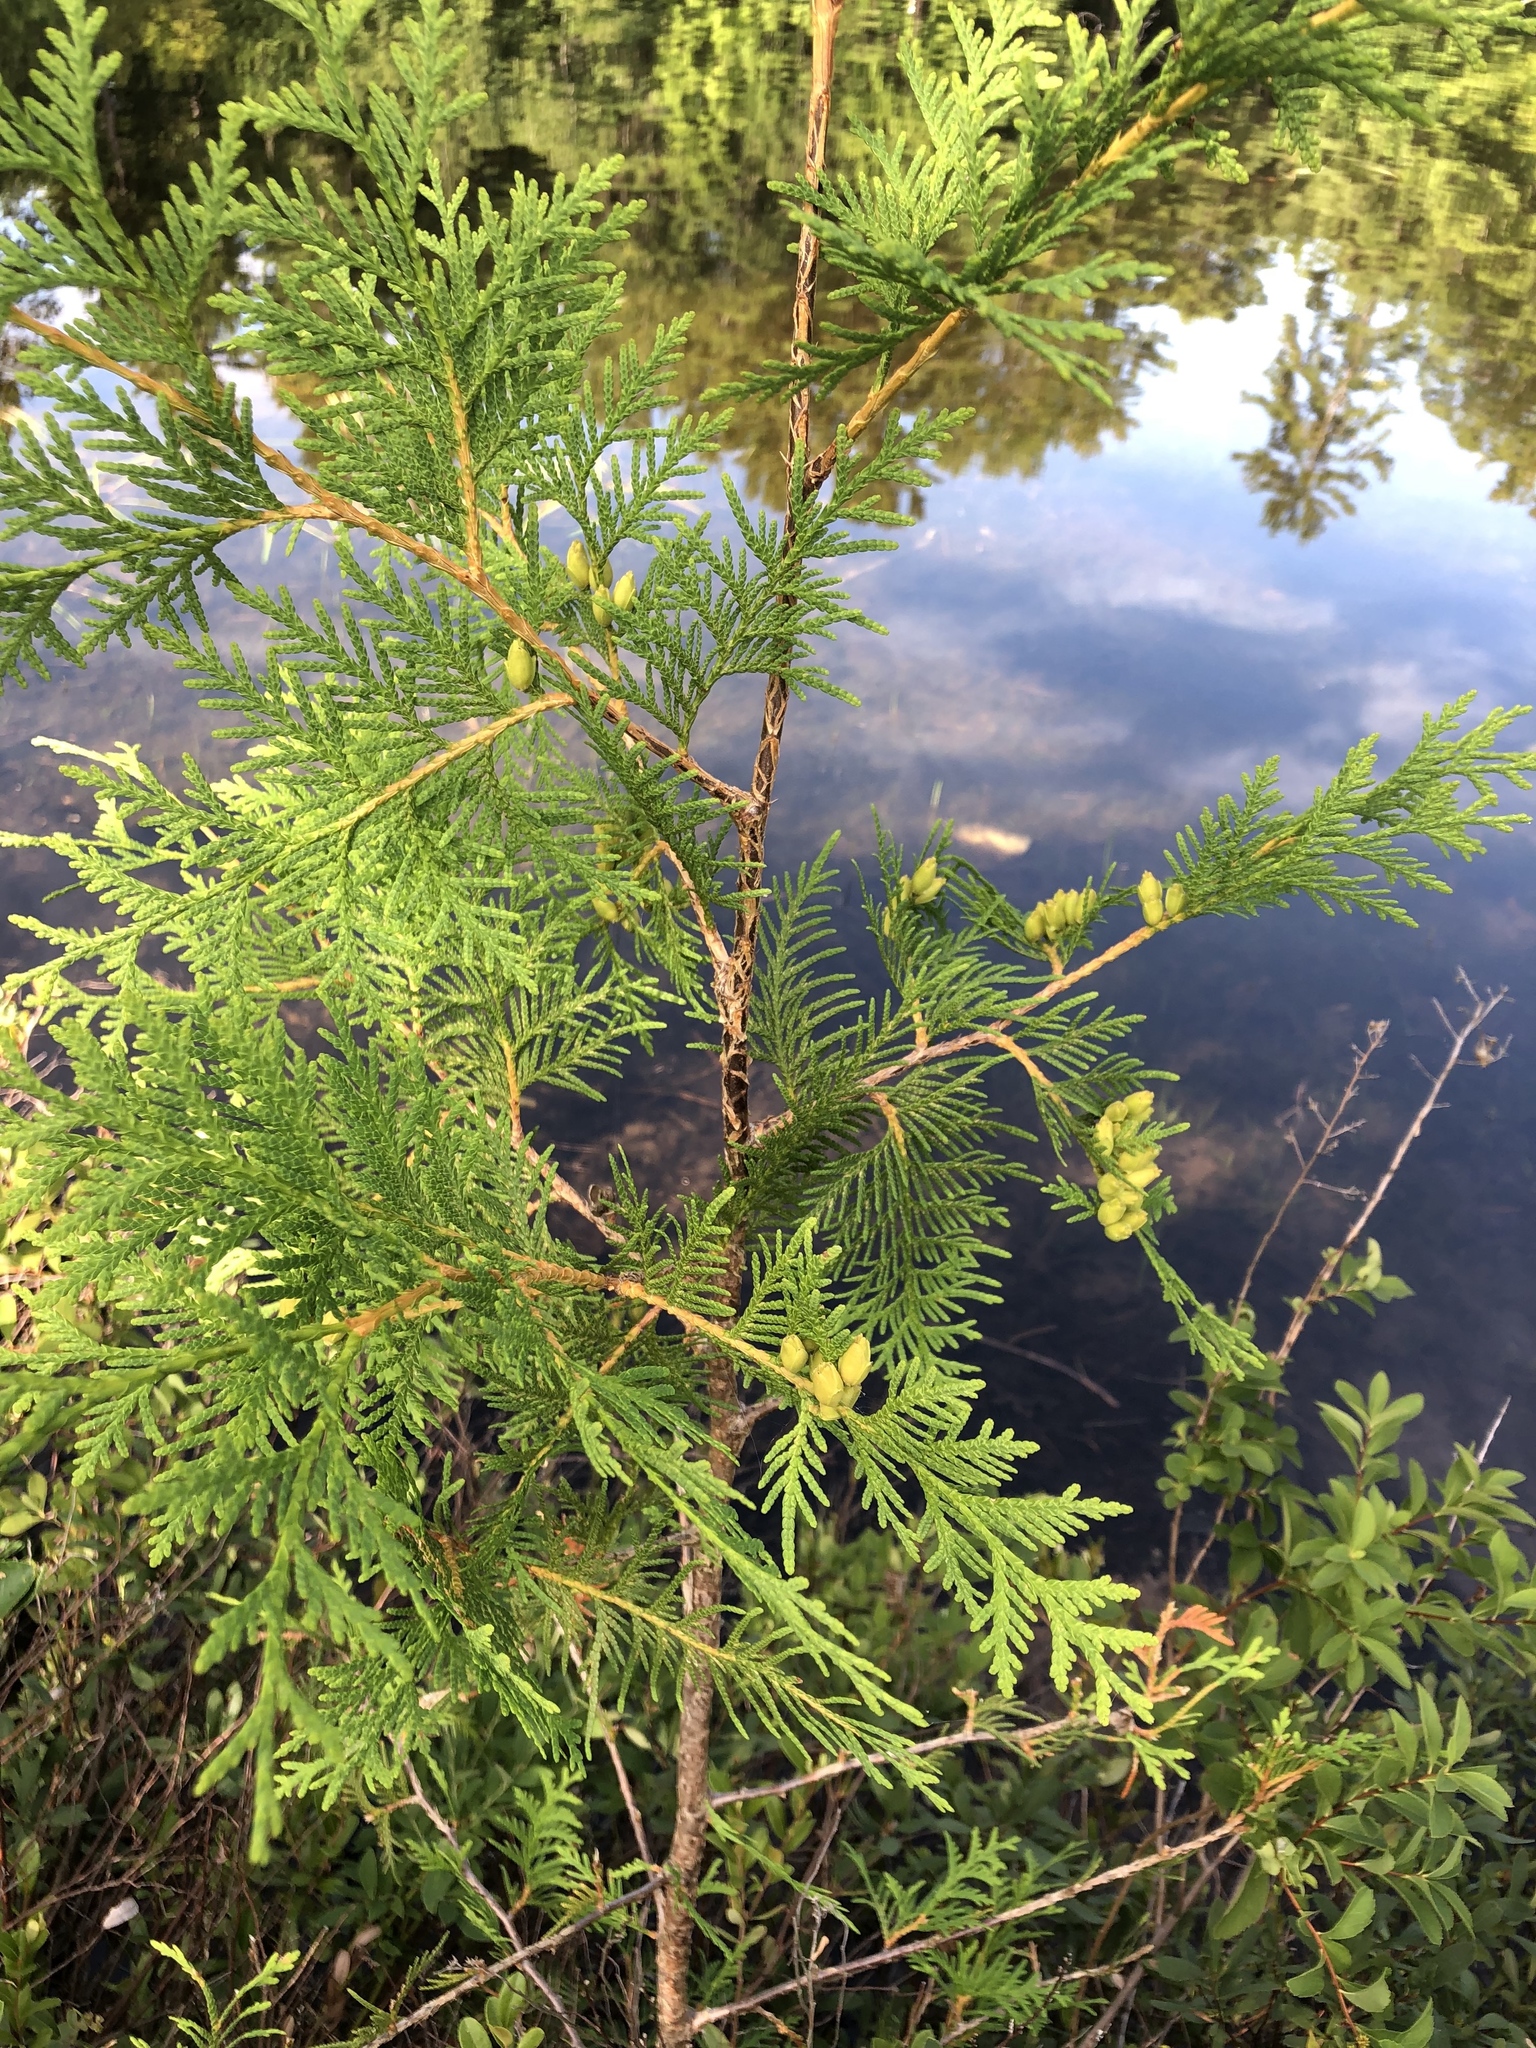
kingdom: Plantae
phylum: Tracheophyta
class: Pinopsida
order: Pinales
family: Cupressaceae
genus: Thuja
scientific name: Thuja occidentalis
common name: Northern white-cedar
